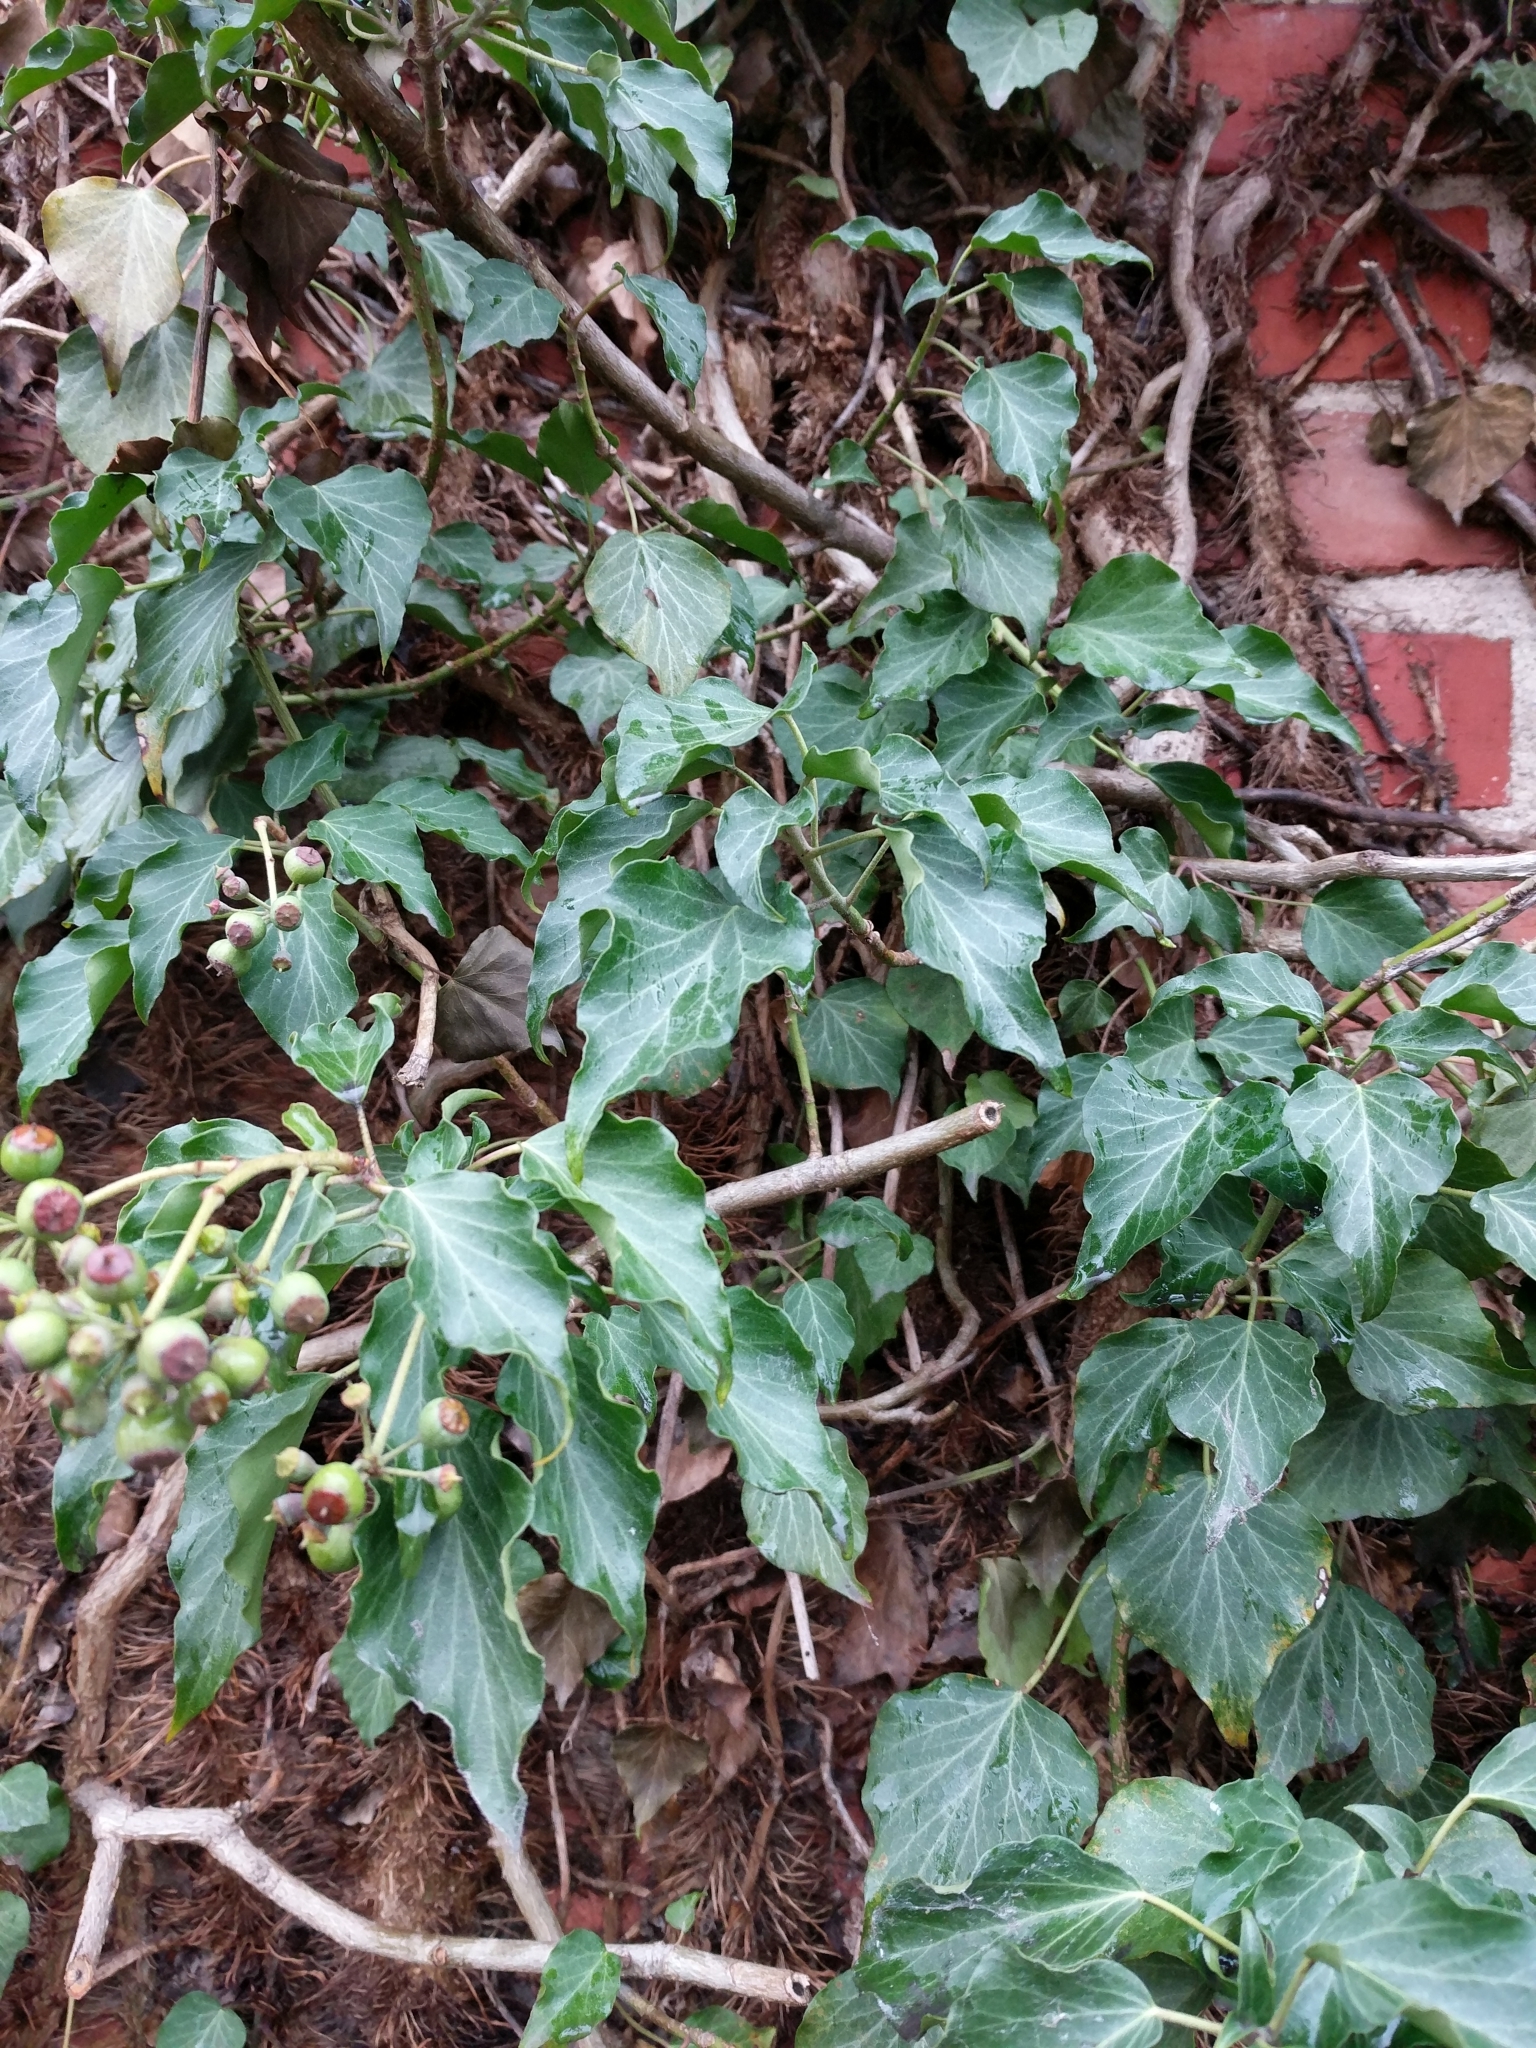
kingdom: Plantae
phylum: Tracheophyta
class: Magnoliopsida
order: Apiales
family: Araliaceae
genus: Hedera
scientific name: Hedera helix
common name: Ivy
